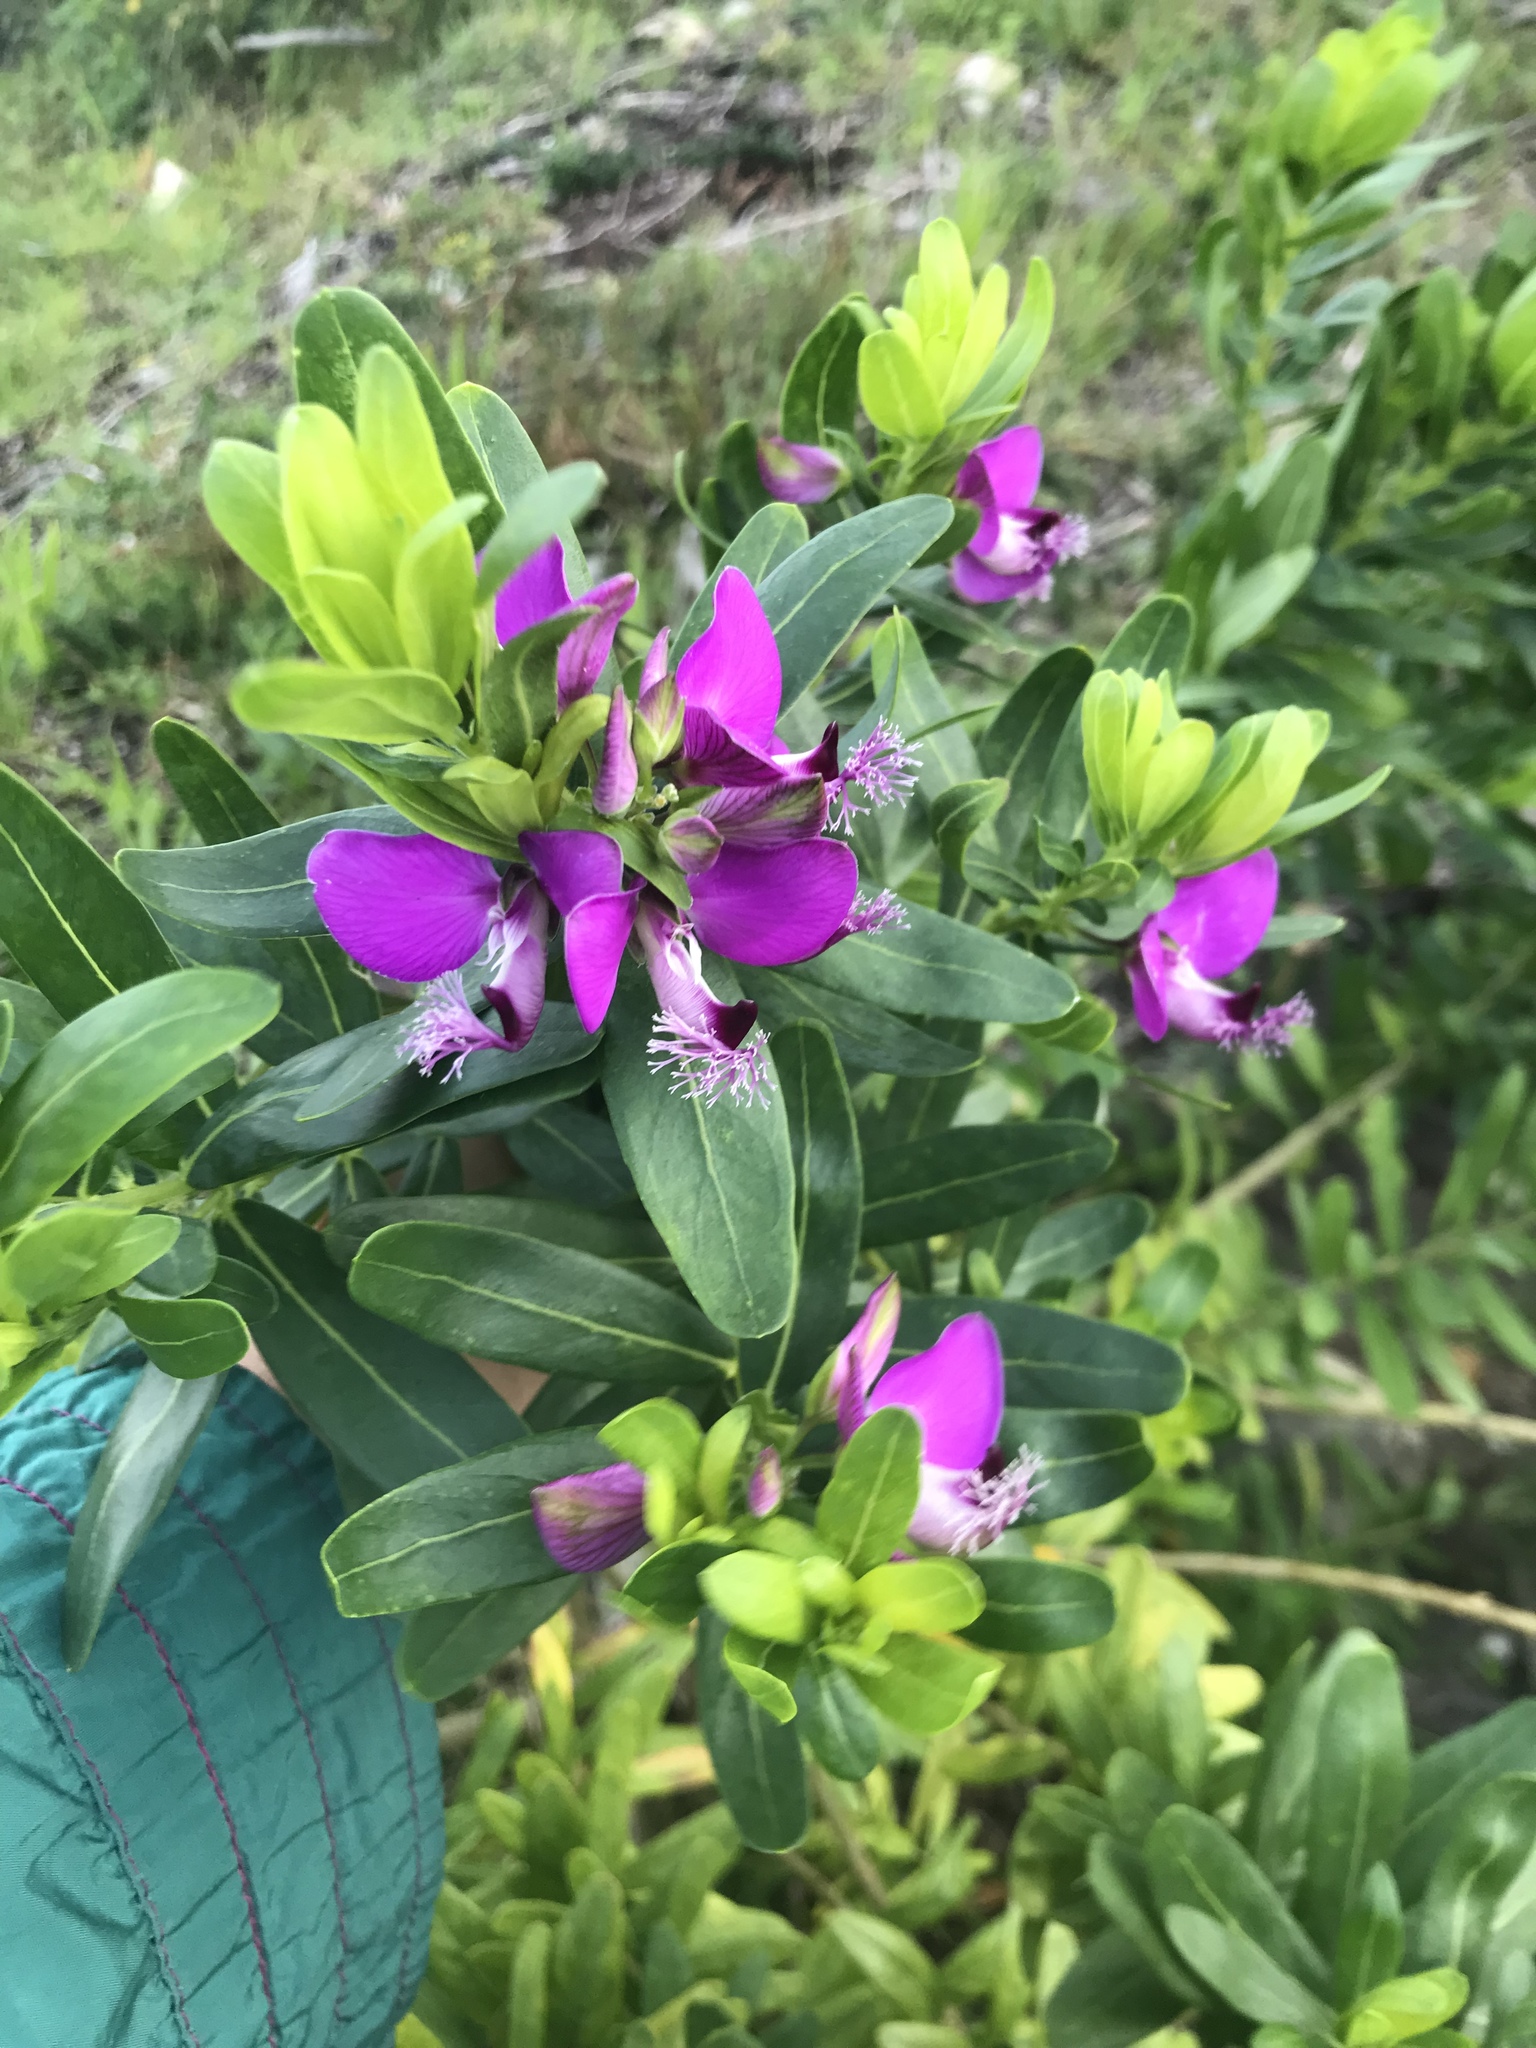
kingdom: Plantae
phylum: Tracheophyta
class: Magnoliopsida
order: Fabales
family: Polygalaceae
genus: Polygala
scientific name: Polygala myrtifolia
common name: Myrtle-leaf milkwort
